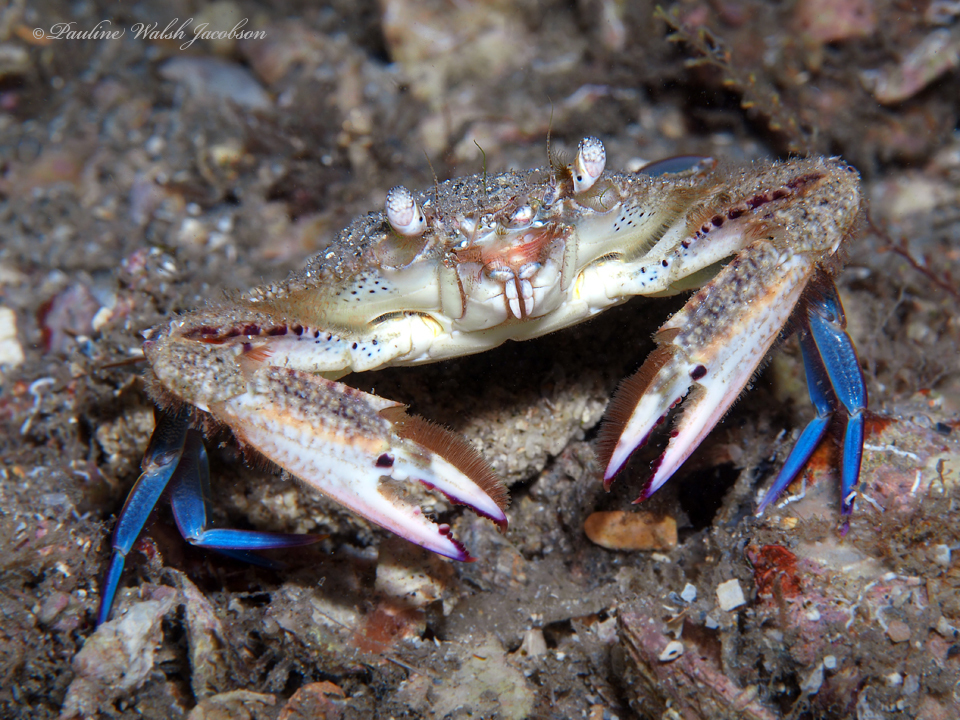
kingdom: Animalia
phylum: Arthropoda
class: Malacostraca
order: Decapoda
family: Portunidae
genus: Achelous
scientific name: Achelous depressifrons
